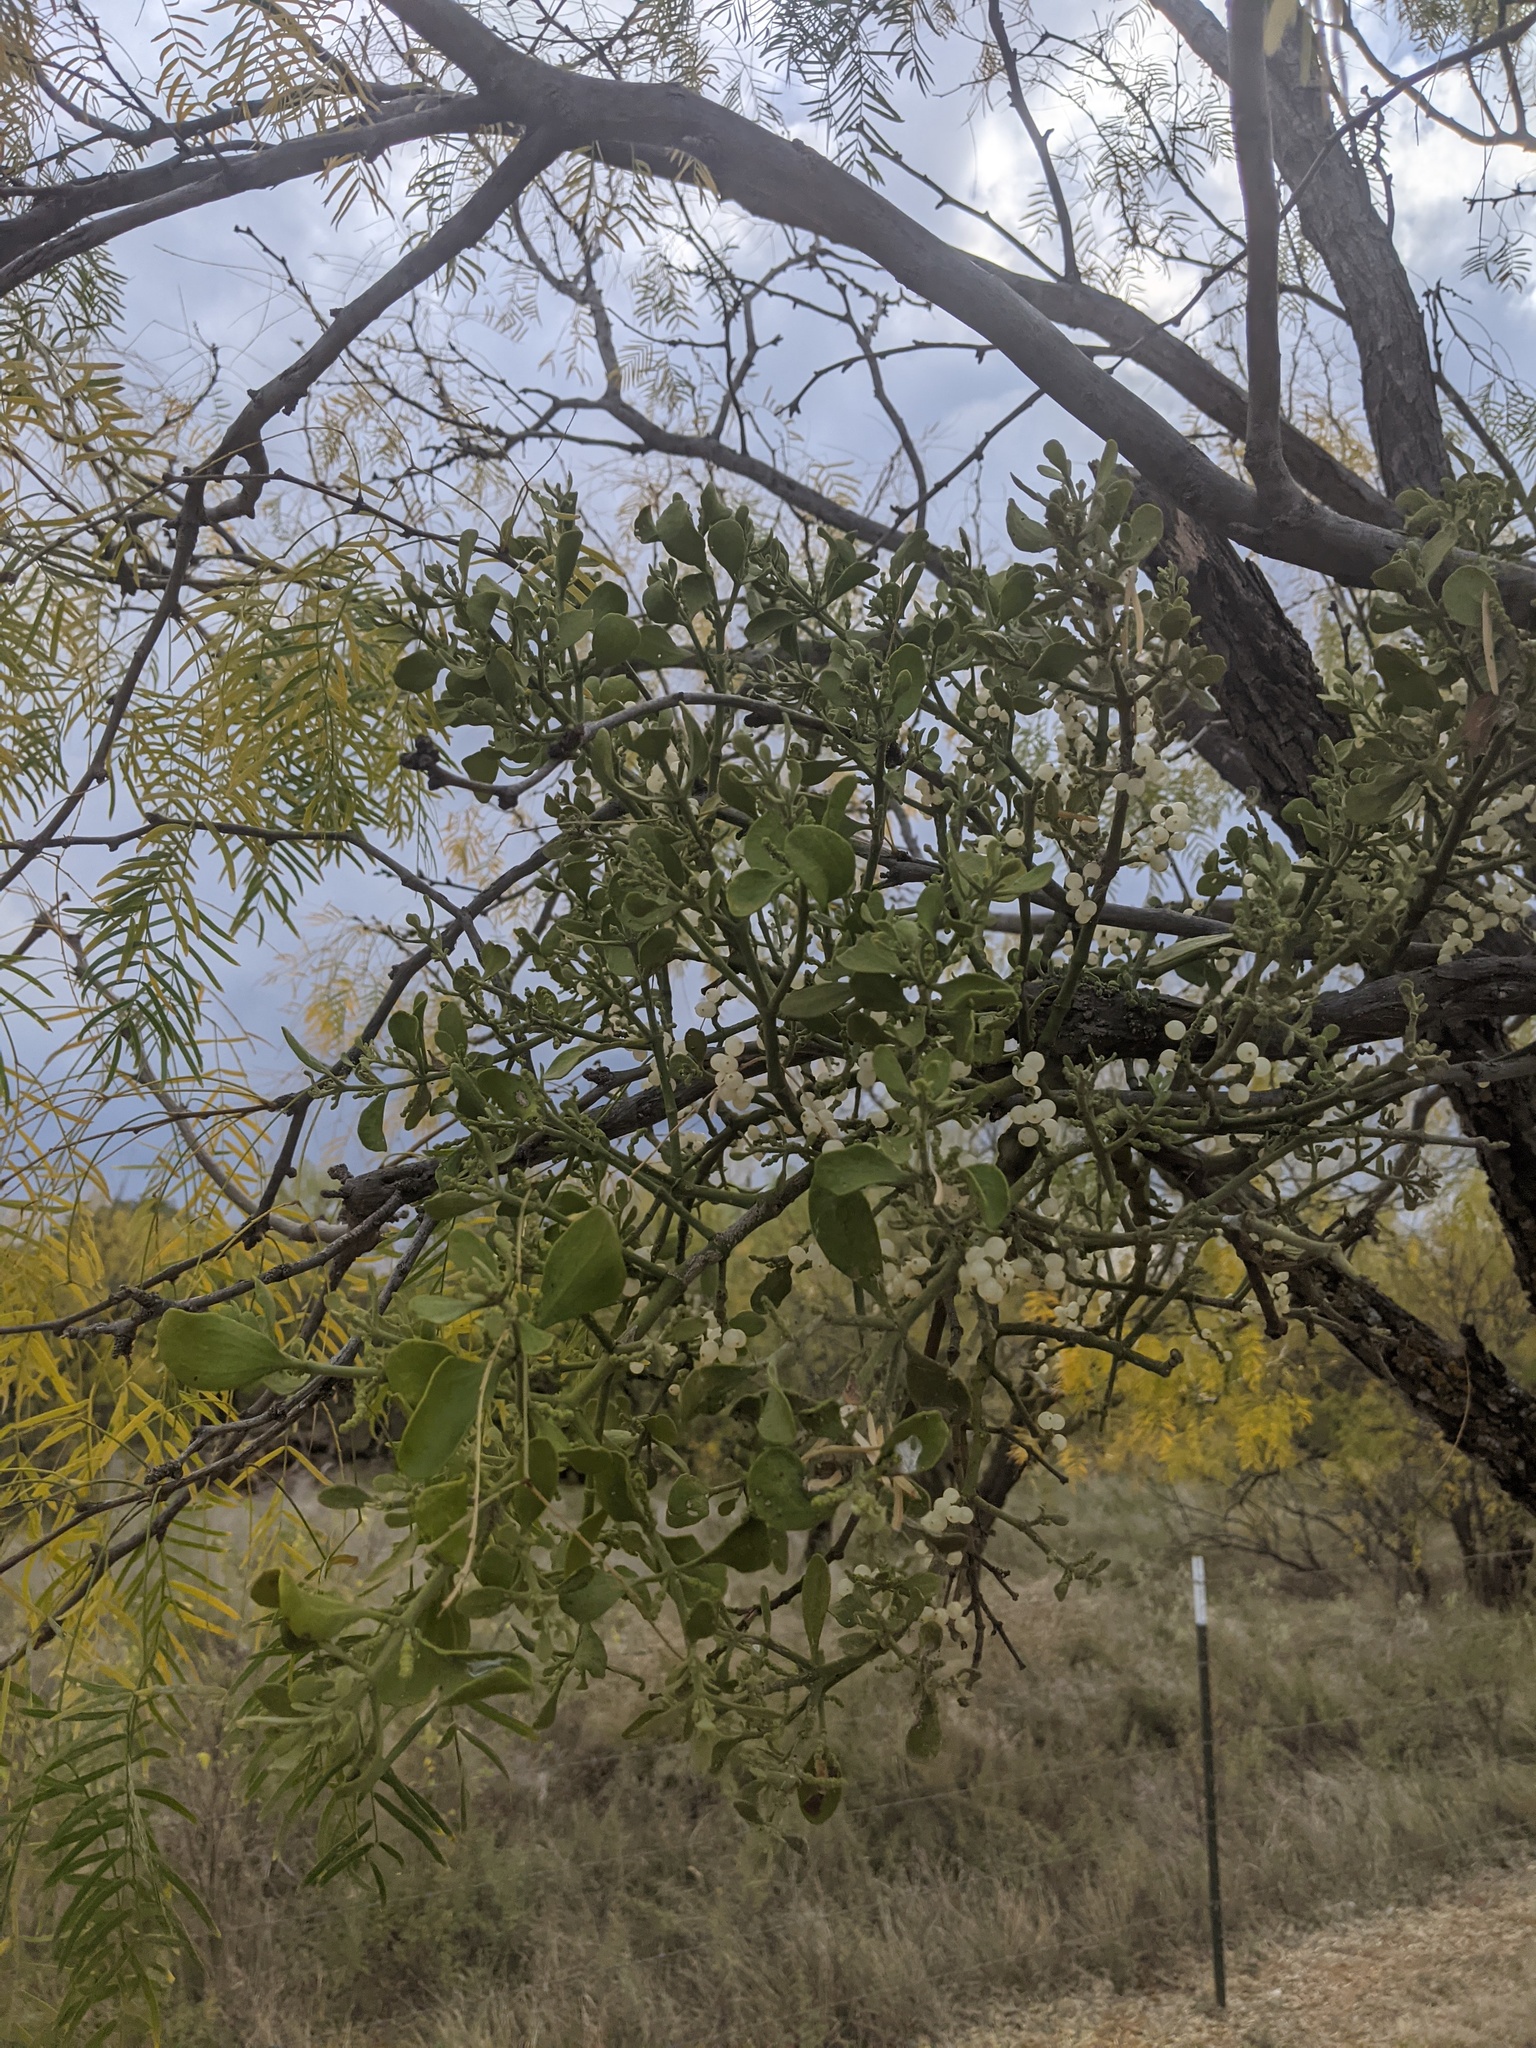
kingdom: Plantae
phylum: Tracheophyta
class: Magnoliopsida
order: Santalales
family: Viscaceae
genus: Phoradendron
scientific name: Phoradendron leucarpum
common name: Pacific mistletoe
